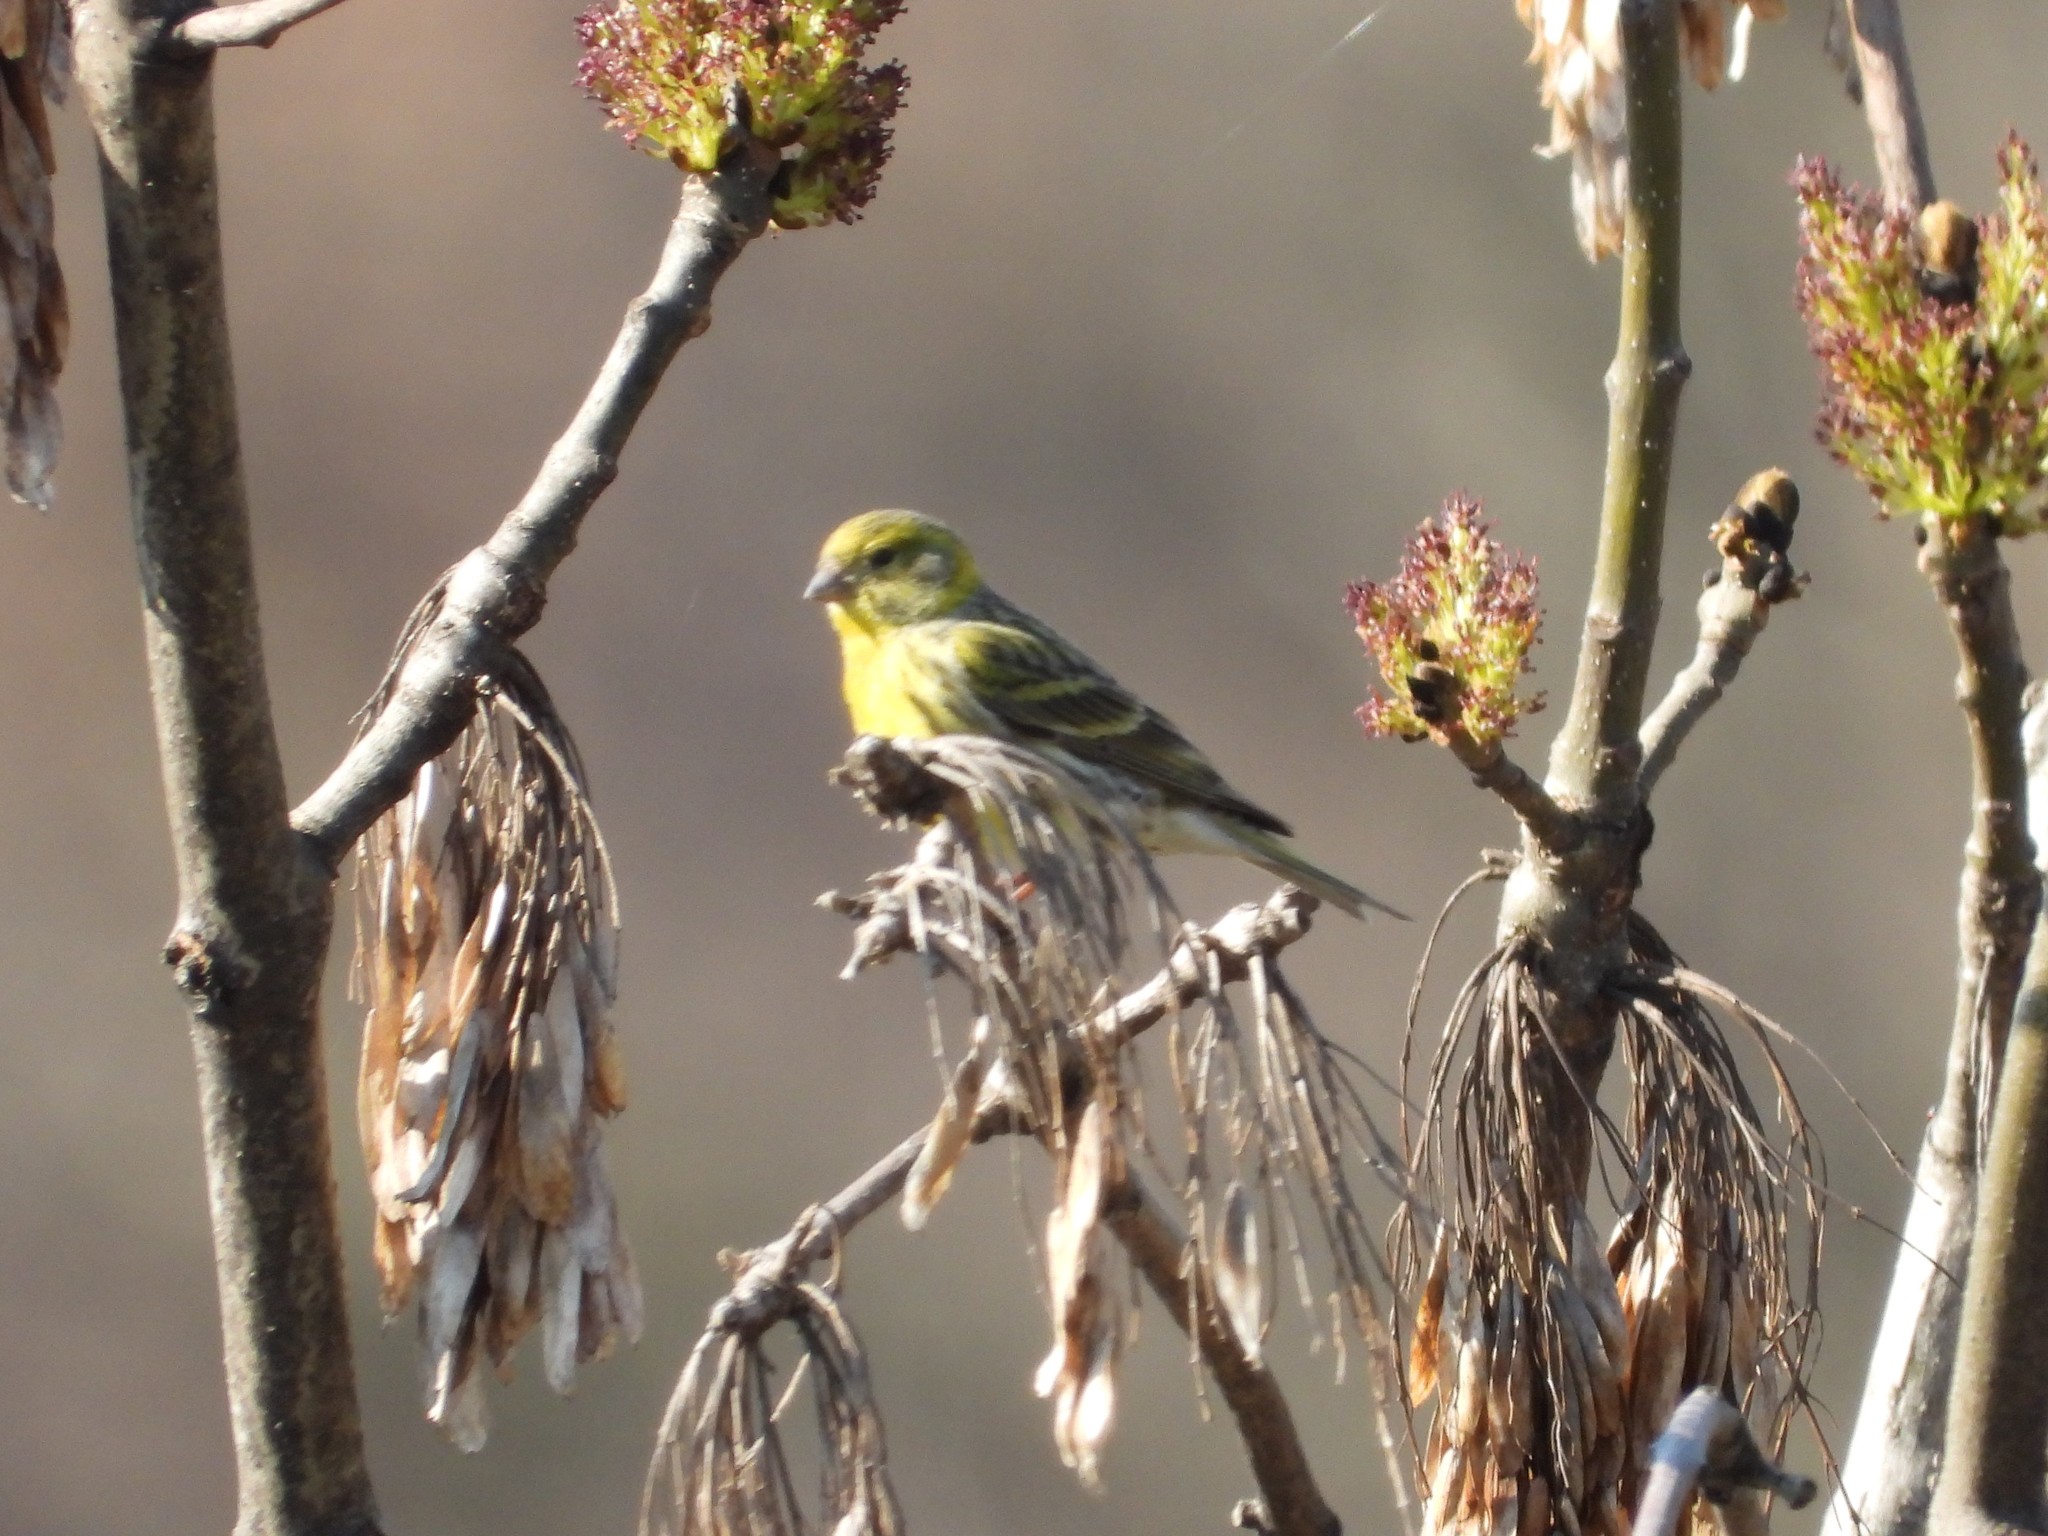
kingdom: Animalia
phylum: Chordata
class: Aves
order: Passeriformes
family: Fringillidae
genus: Serinus
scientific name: Serinus serinus
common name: European serin
